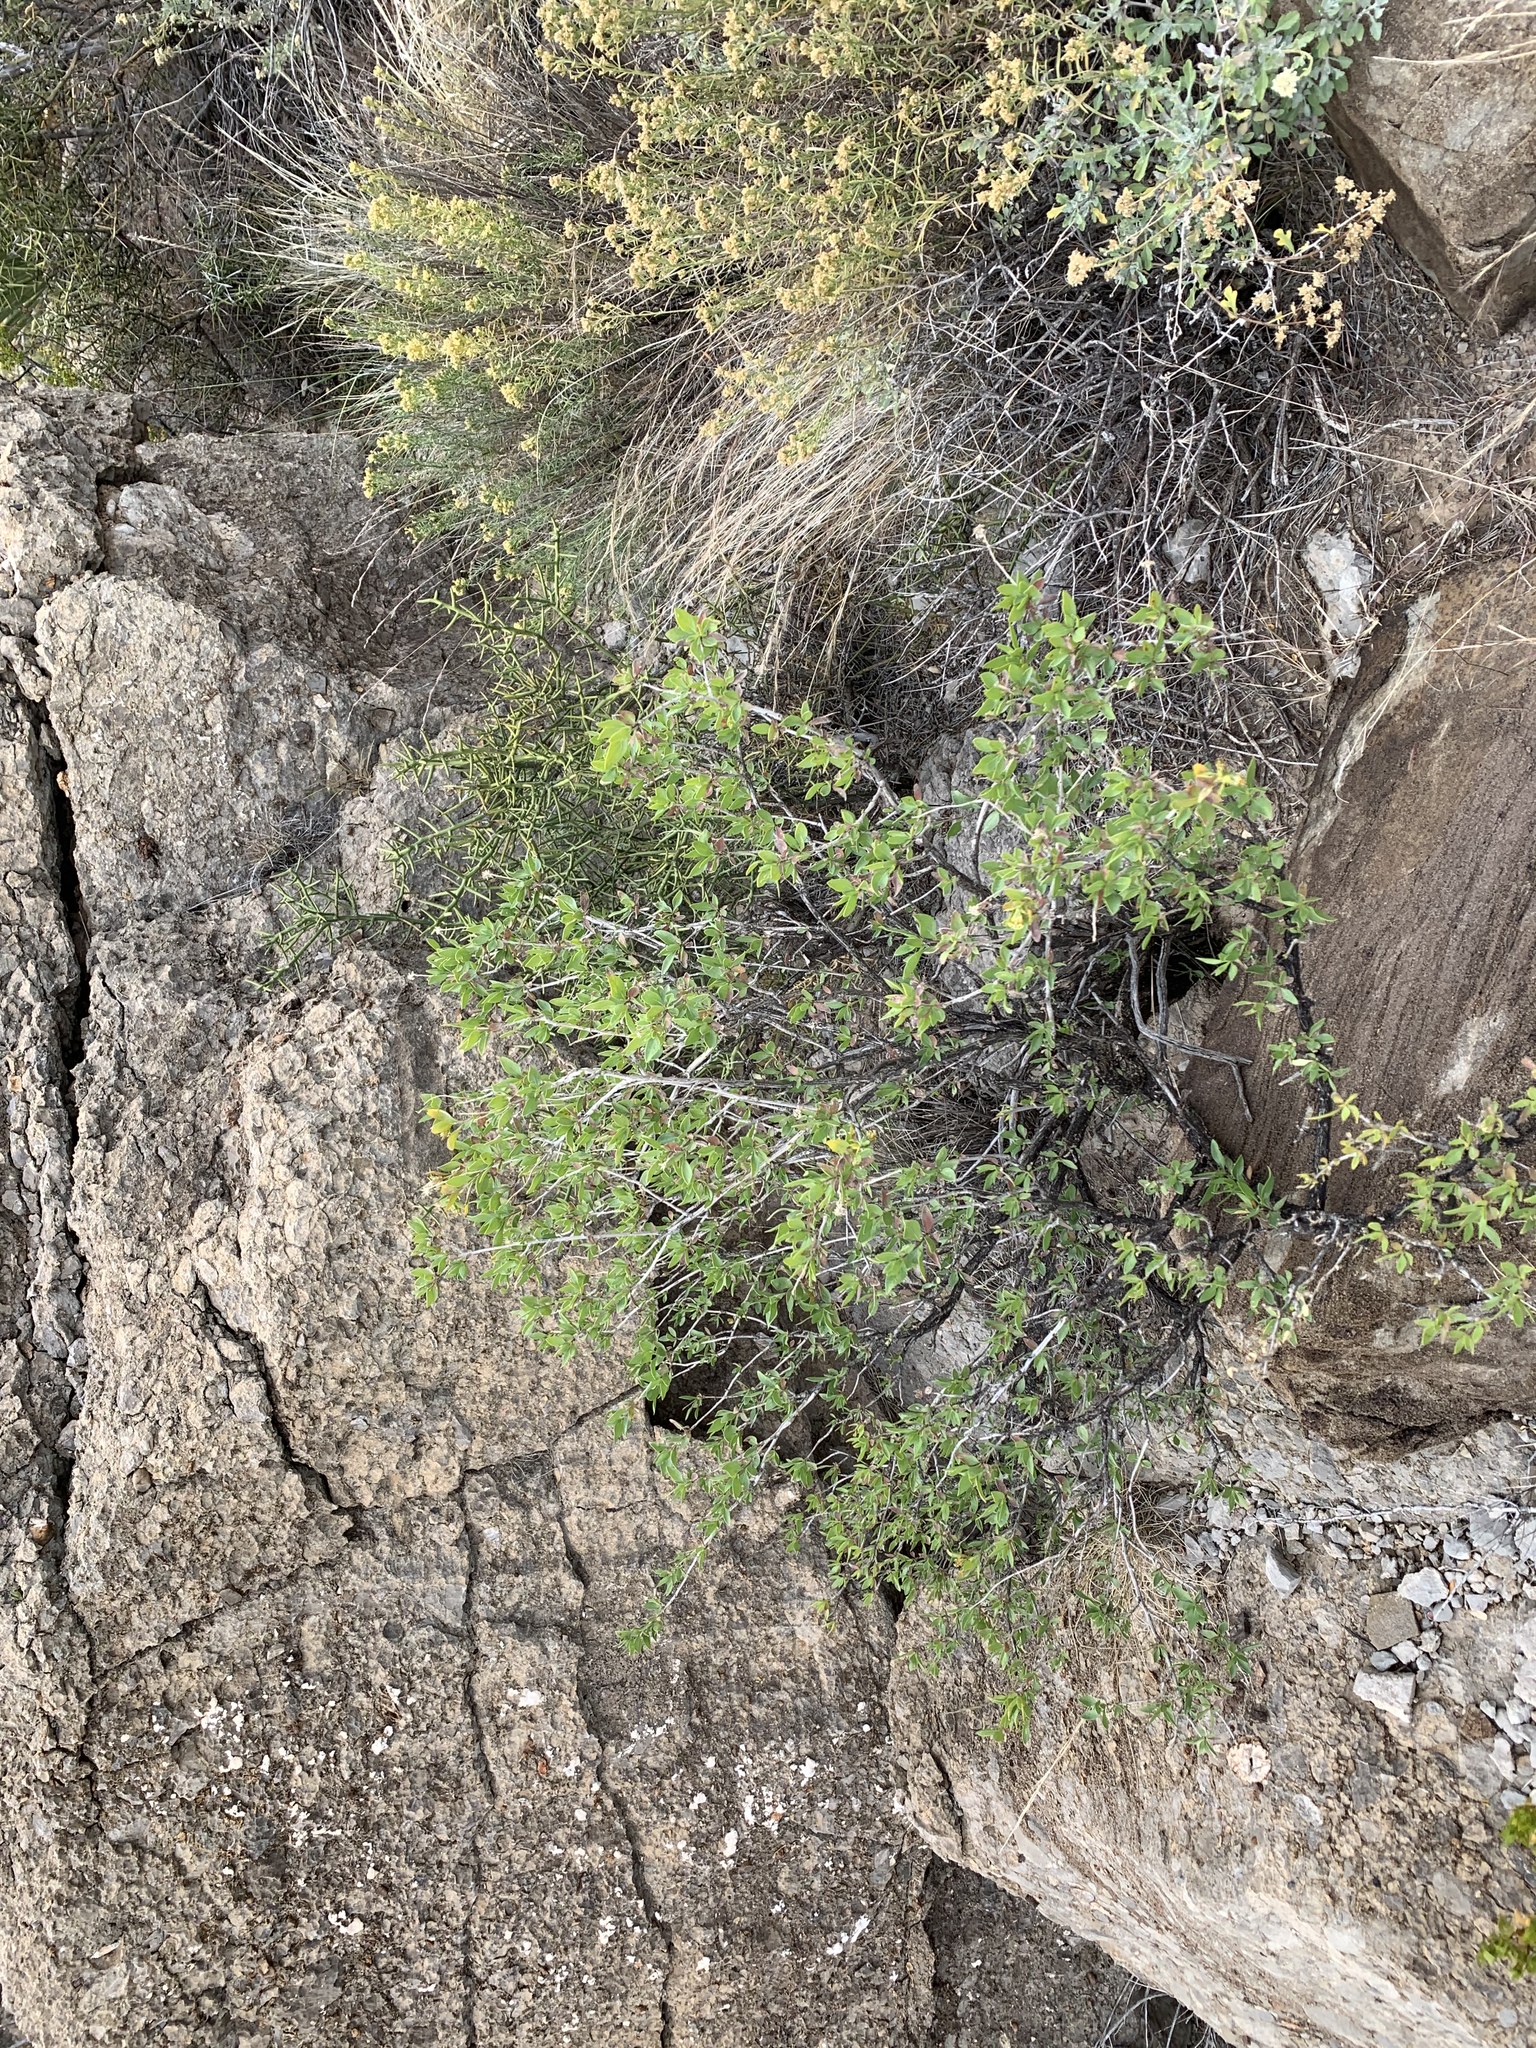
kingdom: Plantae
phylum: Tracheophyta
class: Magnoliopsida
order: Asterales
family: Asteraceae
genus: Flourensia
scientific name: Flourensia cernua
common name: Varnishbush
